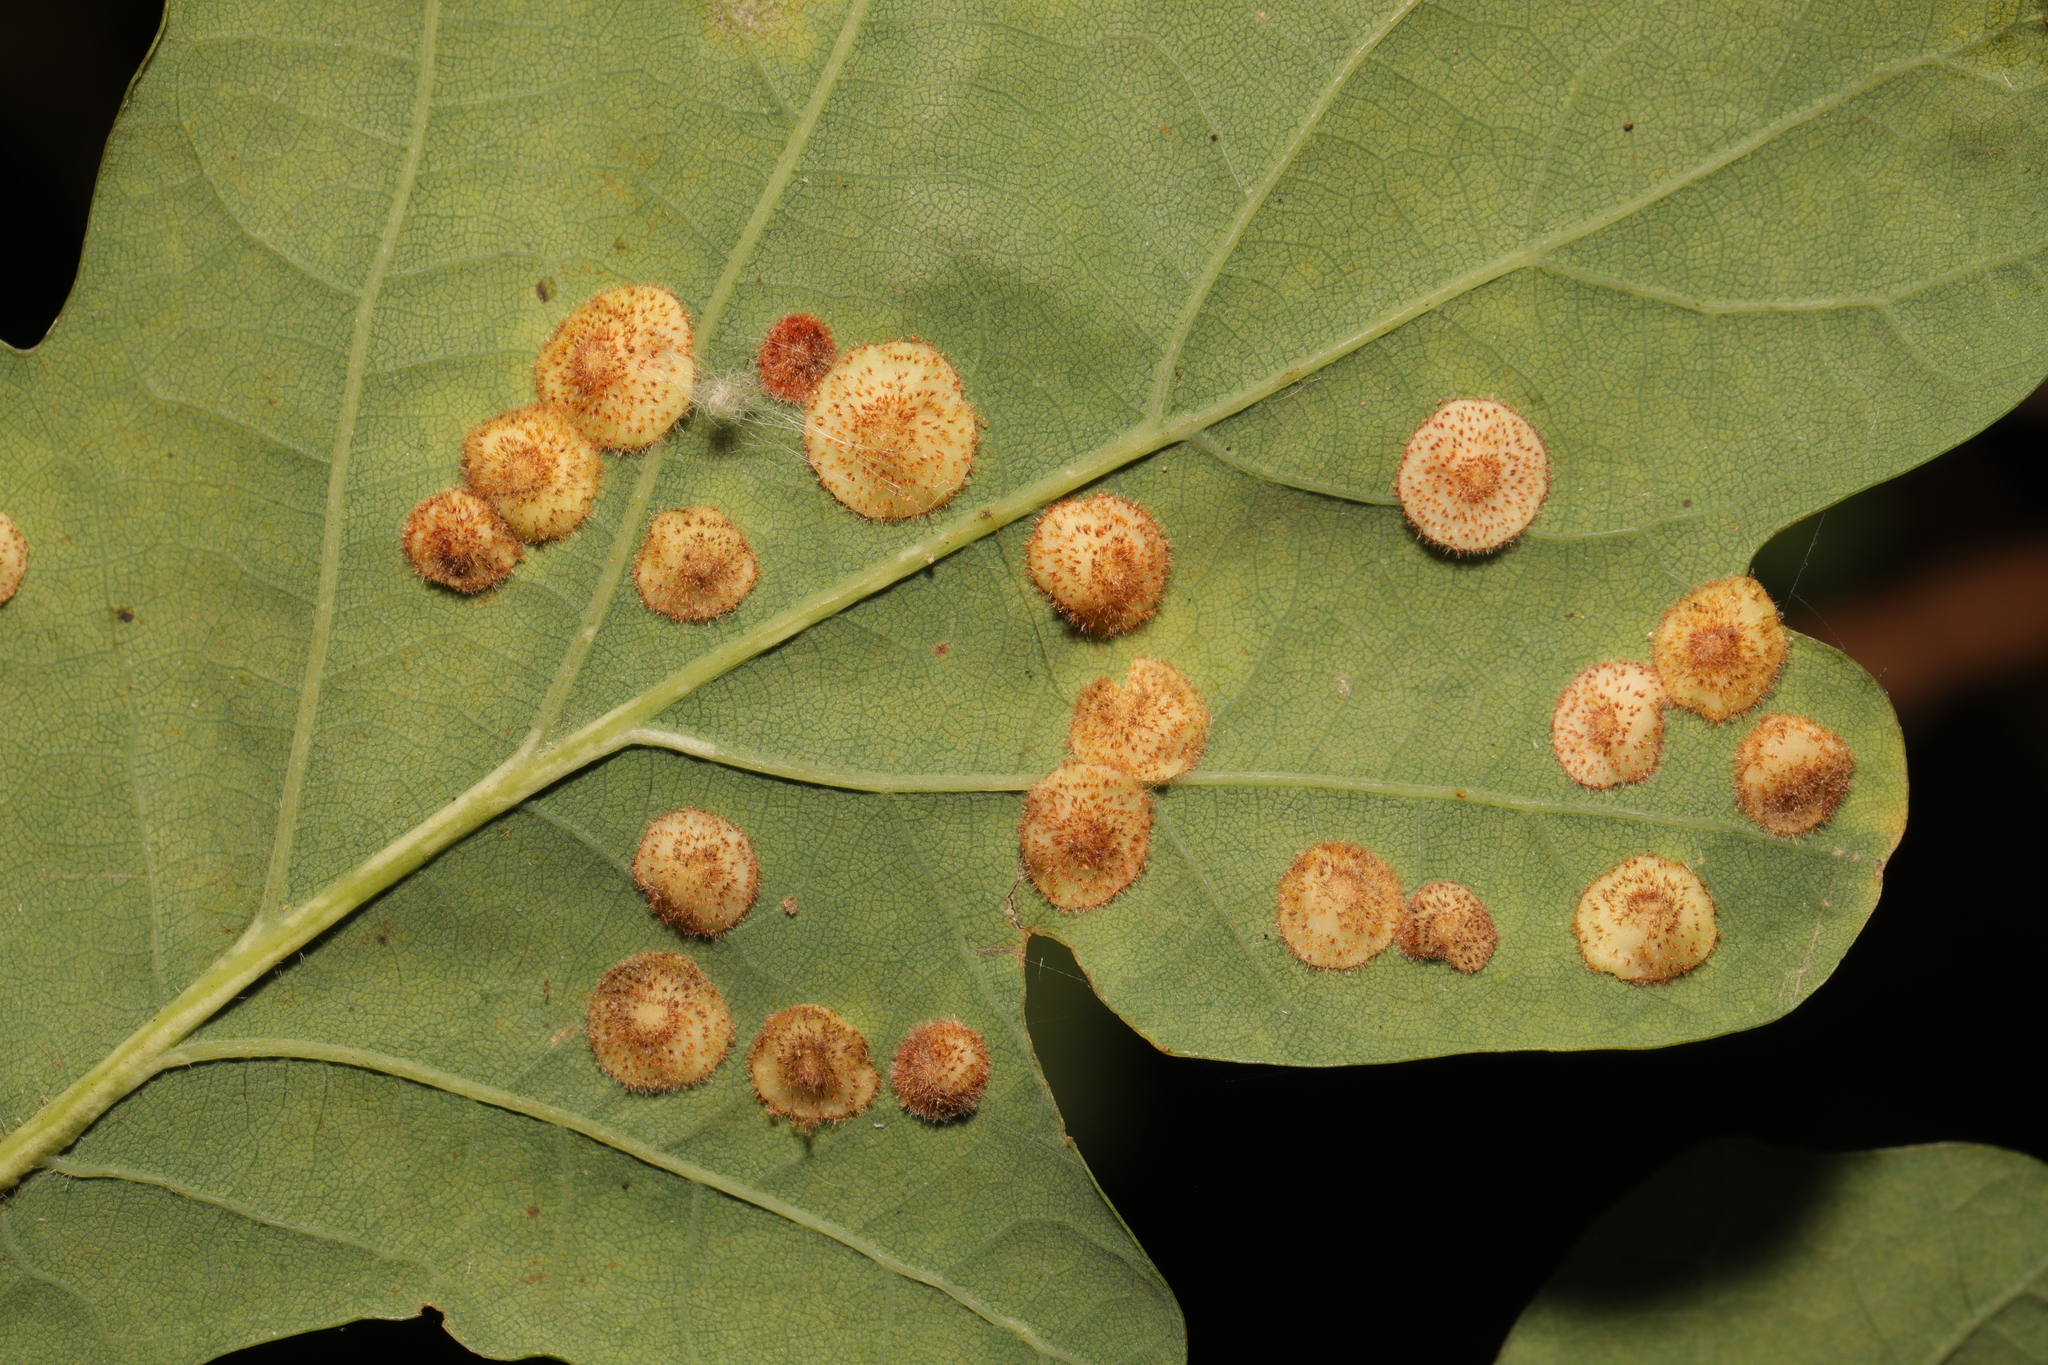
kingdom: Animalia
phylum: Arthropoda
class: Insecta
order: Hymenoptera
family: Cynipidae
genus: Neuroterus
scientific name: Neuroterus quercusbaccarum
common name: Common spangle gall
